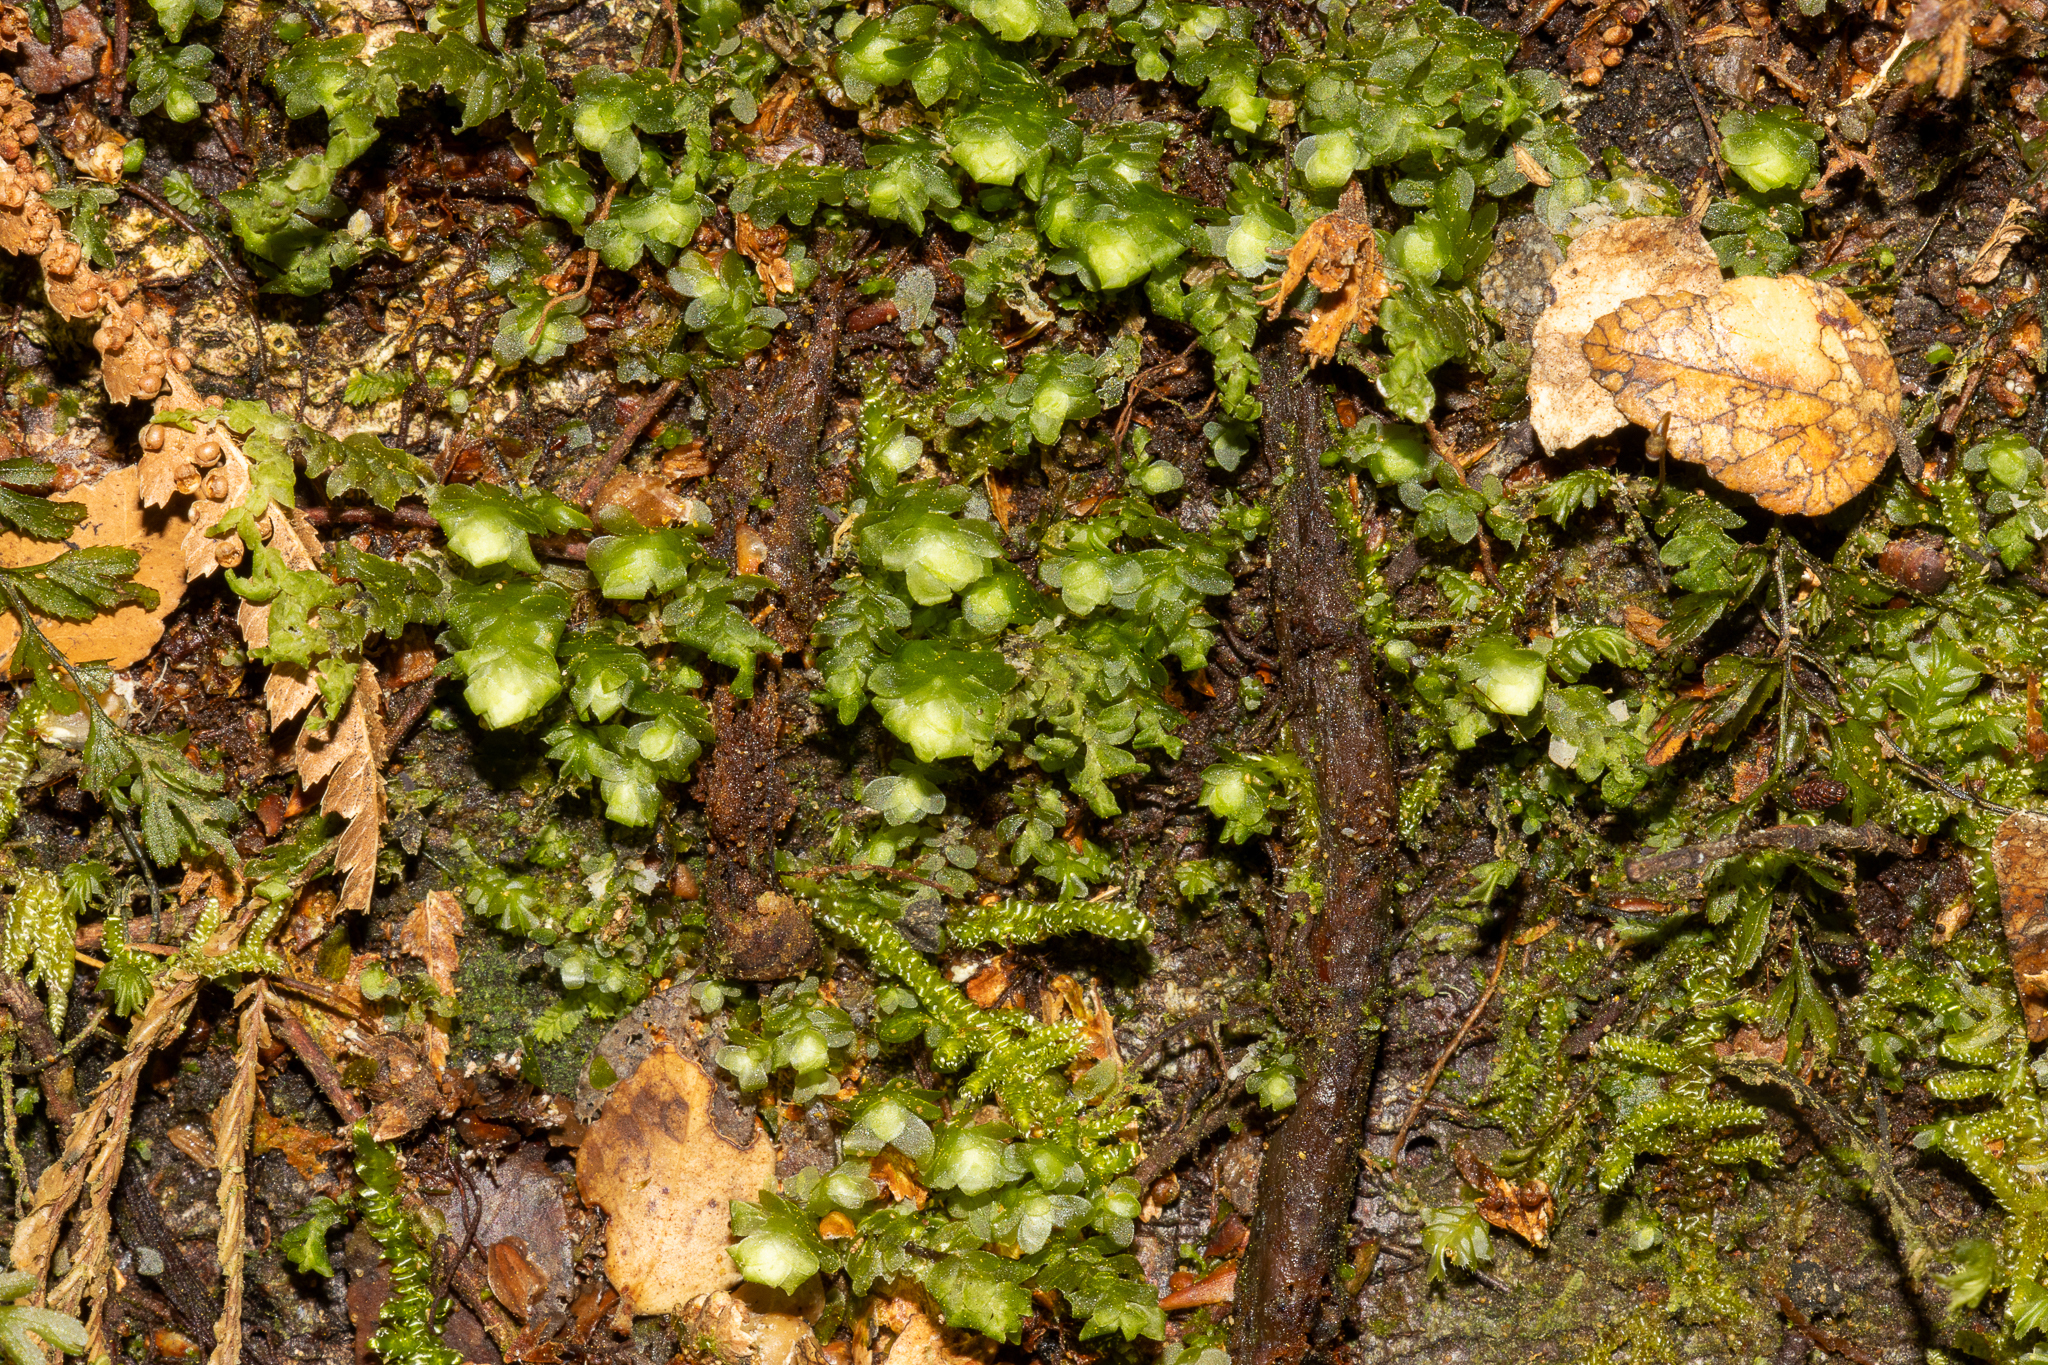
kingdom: Plantae
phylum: Bryophyta
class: Bryopsida
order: Hookeriales
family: Daltoniaceae
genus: Achrophyllum
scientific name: Achrophyllum dentatum
